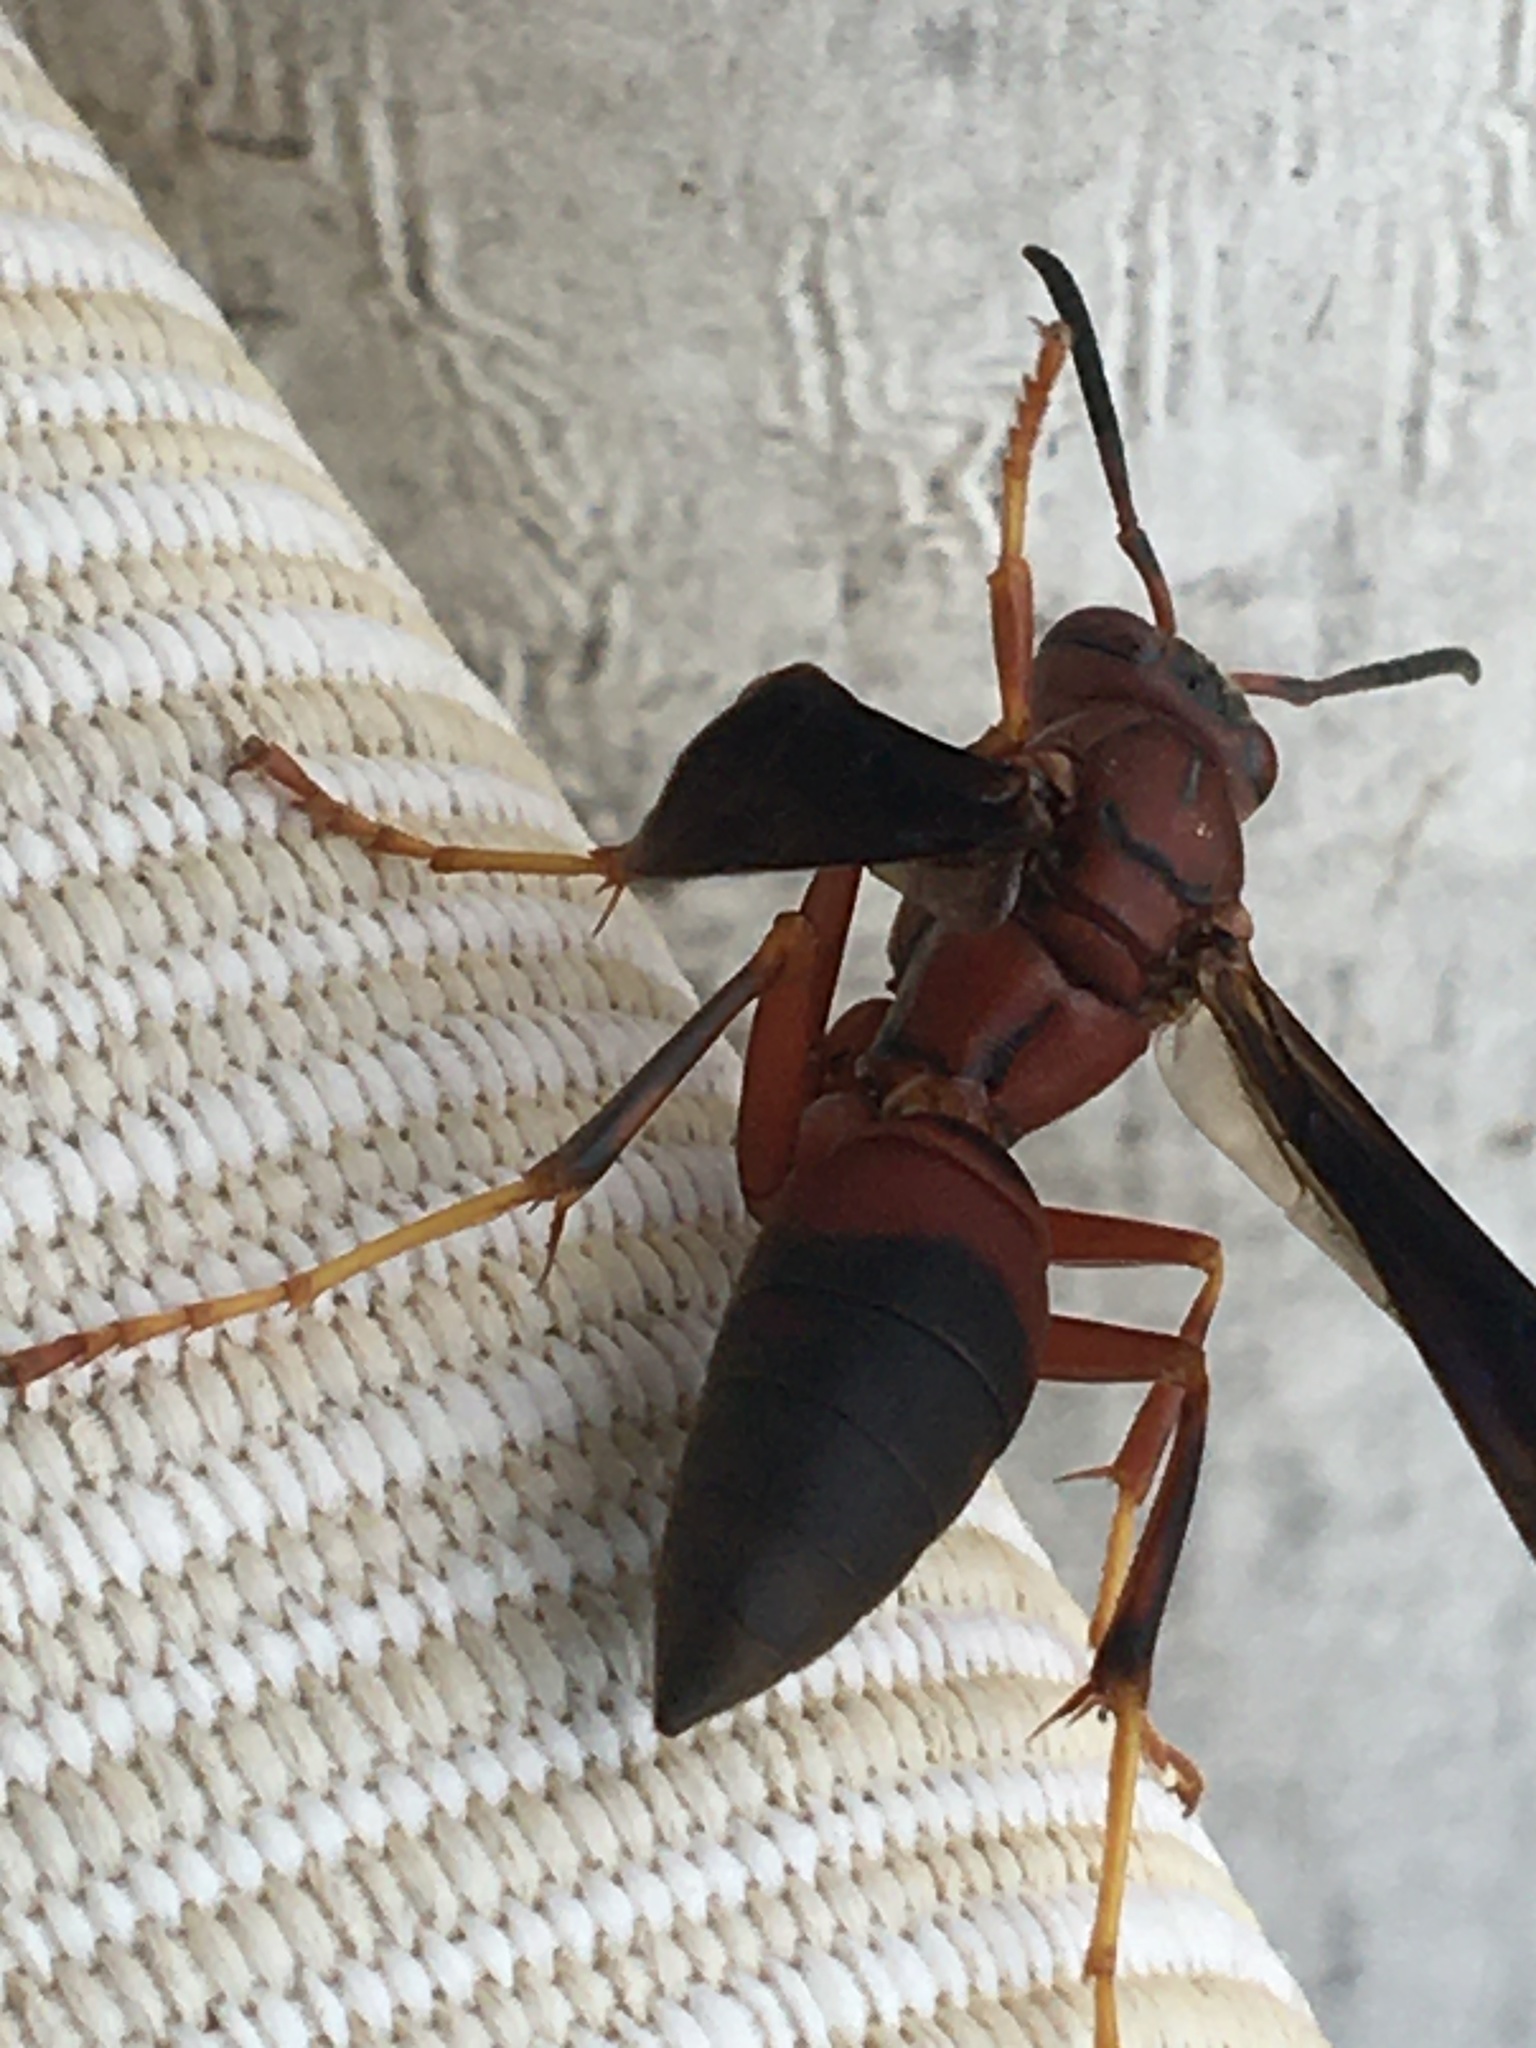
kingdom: Animalia
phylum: Arthropoda
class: Insecta
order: Hymenoptera
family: Eumenidae
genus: Polistes
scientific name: Polistes metricus
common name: Metric paper wasp
